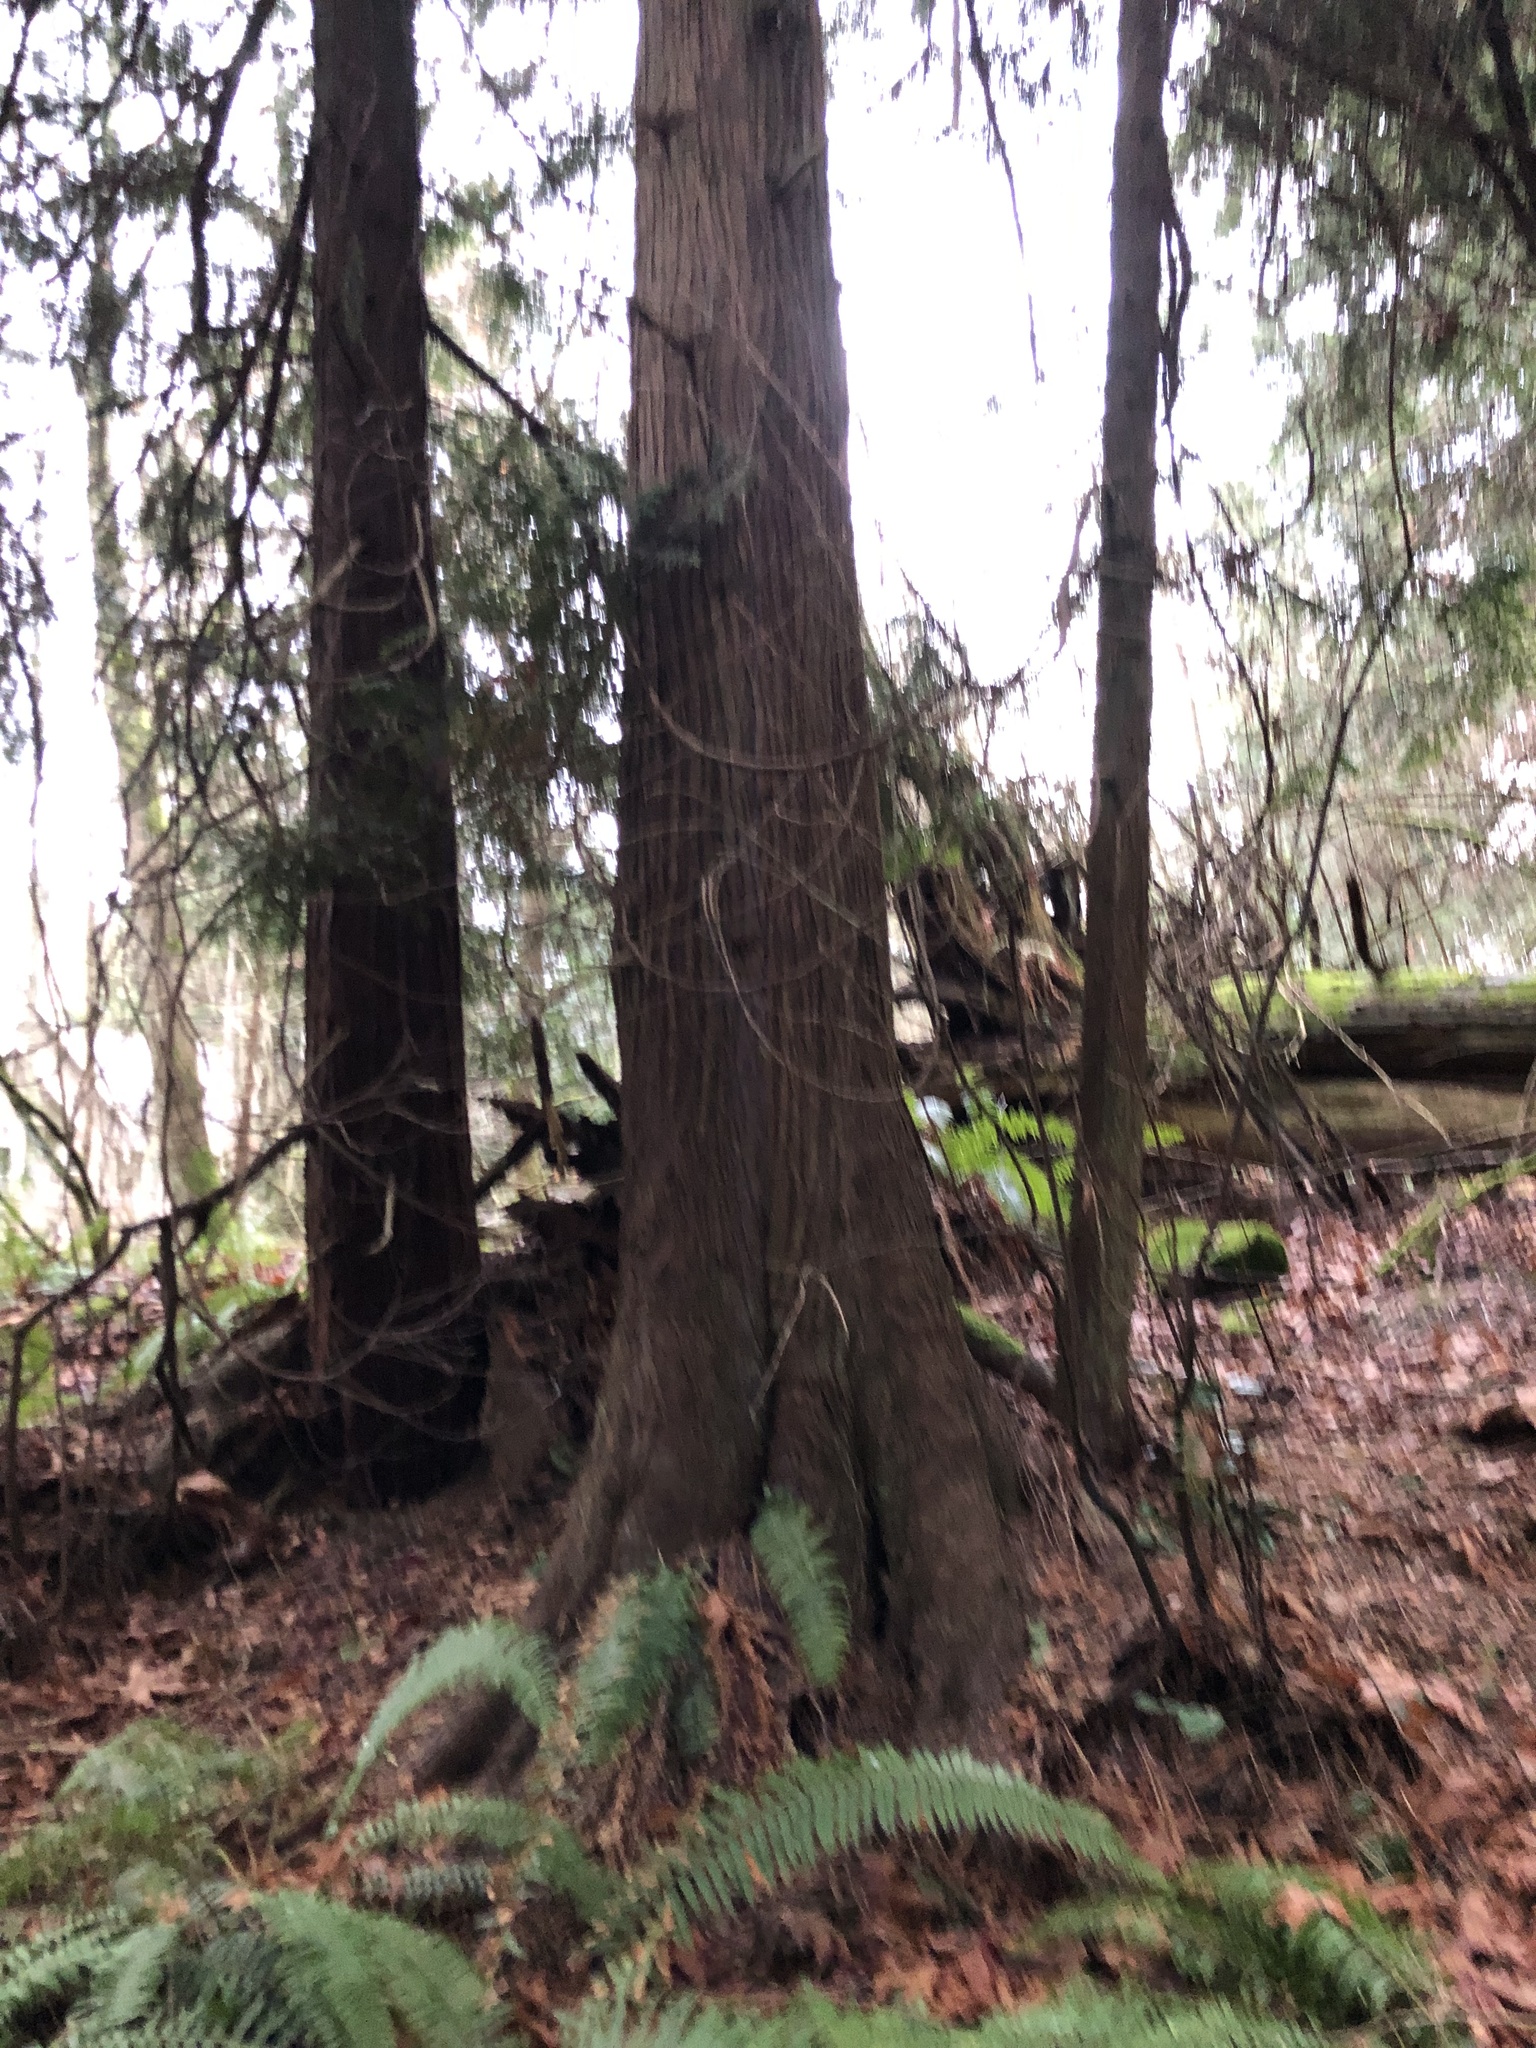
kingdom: Plantae
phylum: Tracheophyta
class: Pinopsida
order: Pinales
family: Cupressaceae
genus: Thuja
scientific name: Thuja plicata
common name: Western red-cedar
